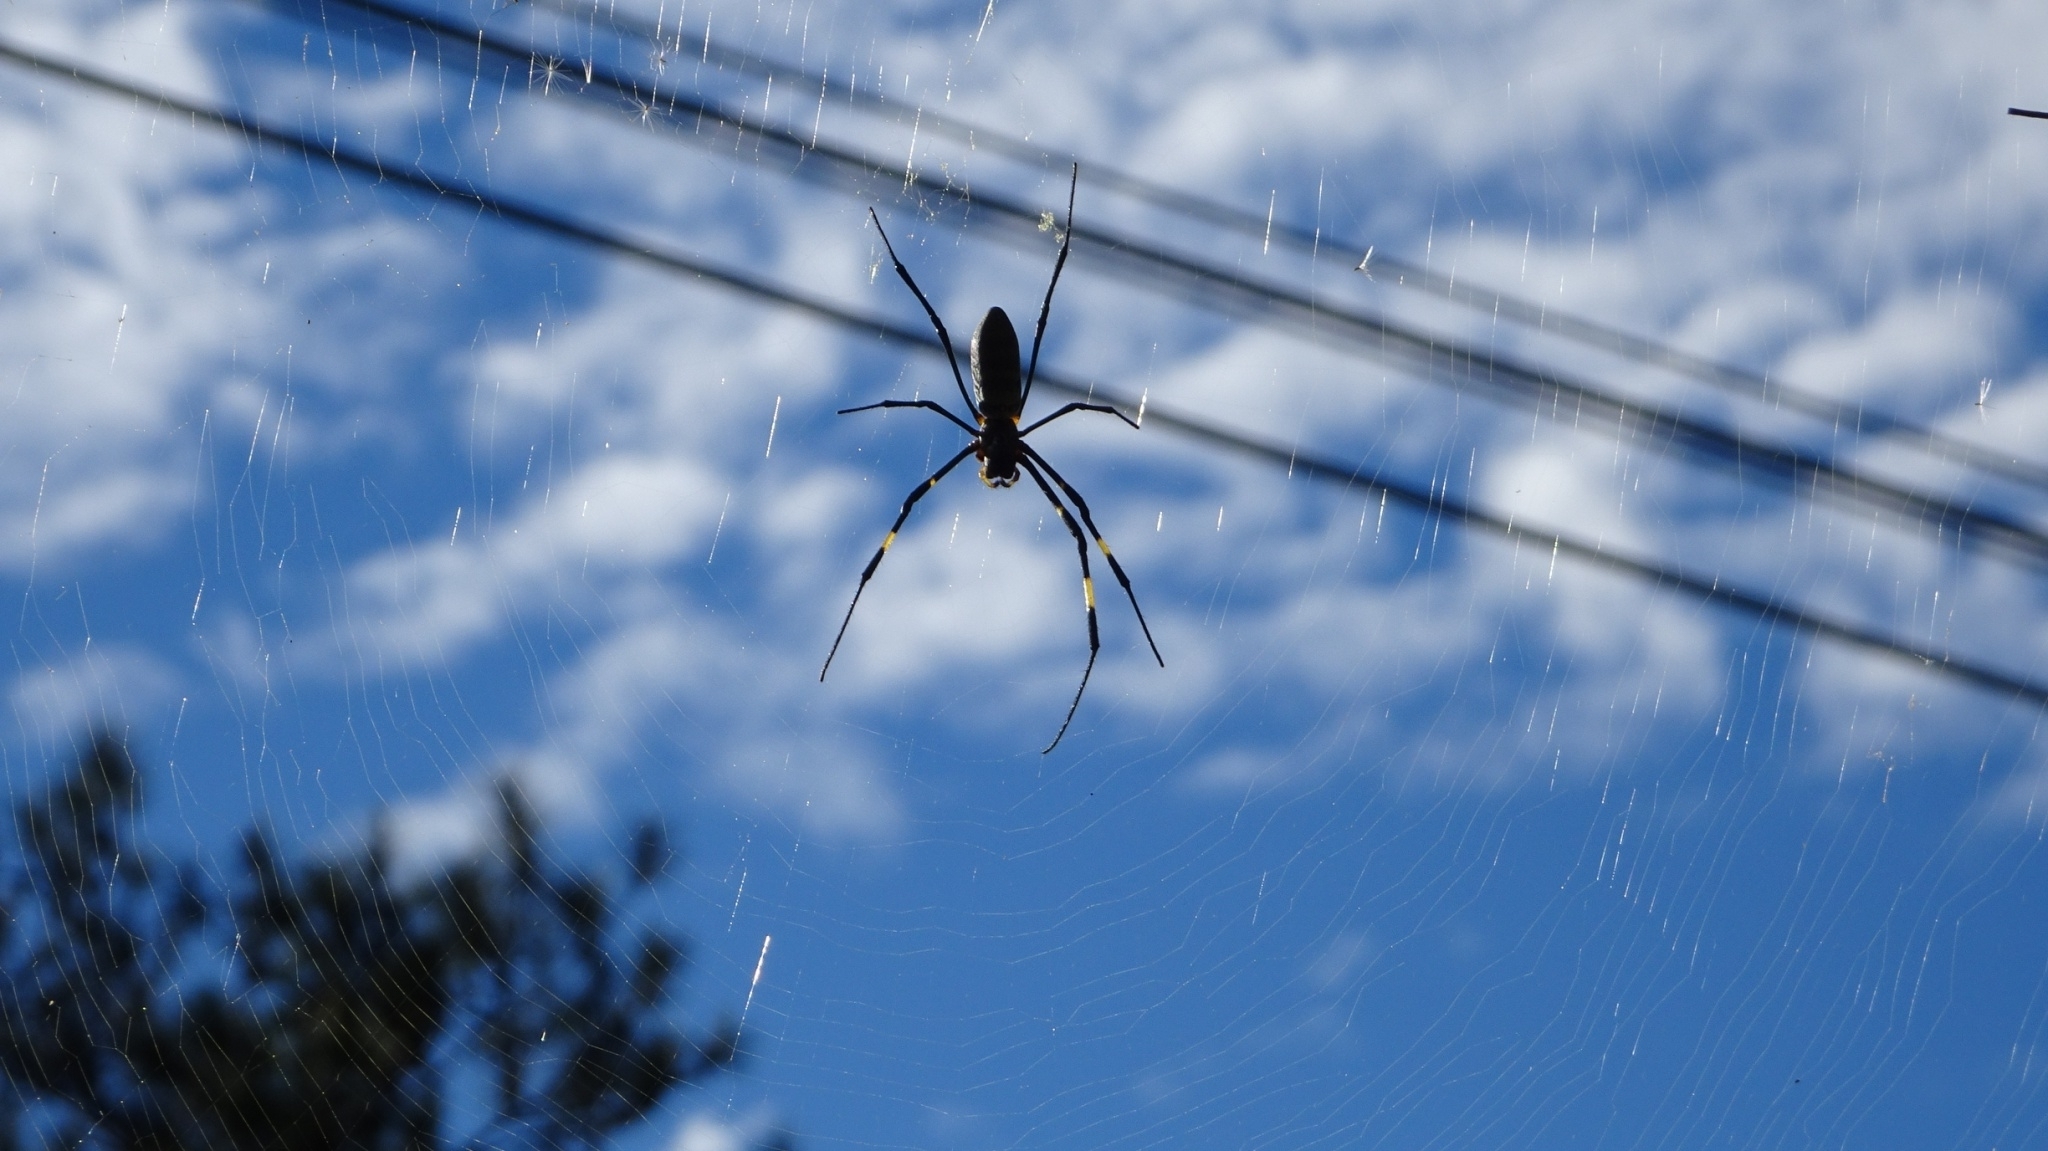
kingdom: Animalia
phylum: Arthropoda
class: Arachnida
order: Araneae
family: Araneidae
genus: Trichonephila
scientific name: Trichonephila clavata
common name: Jorō spider
